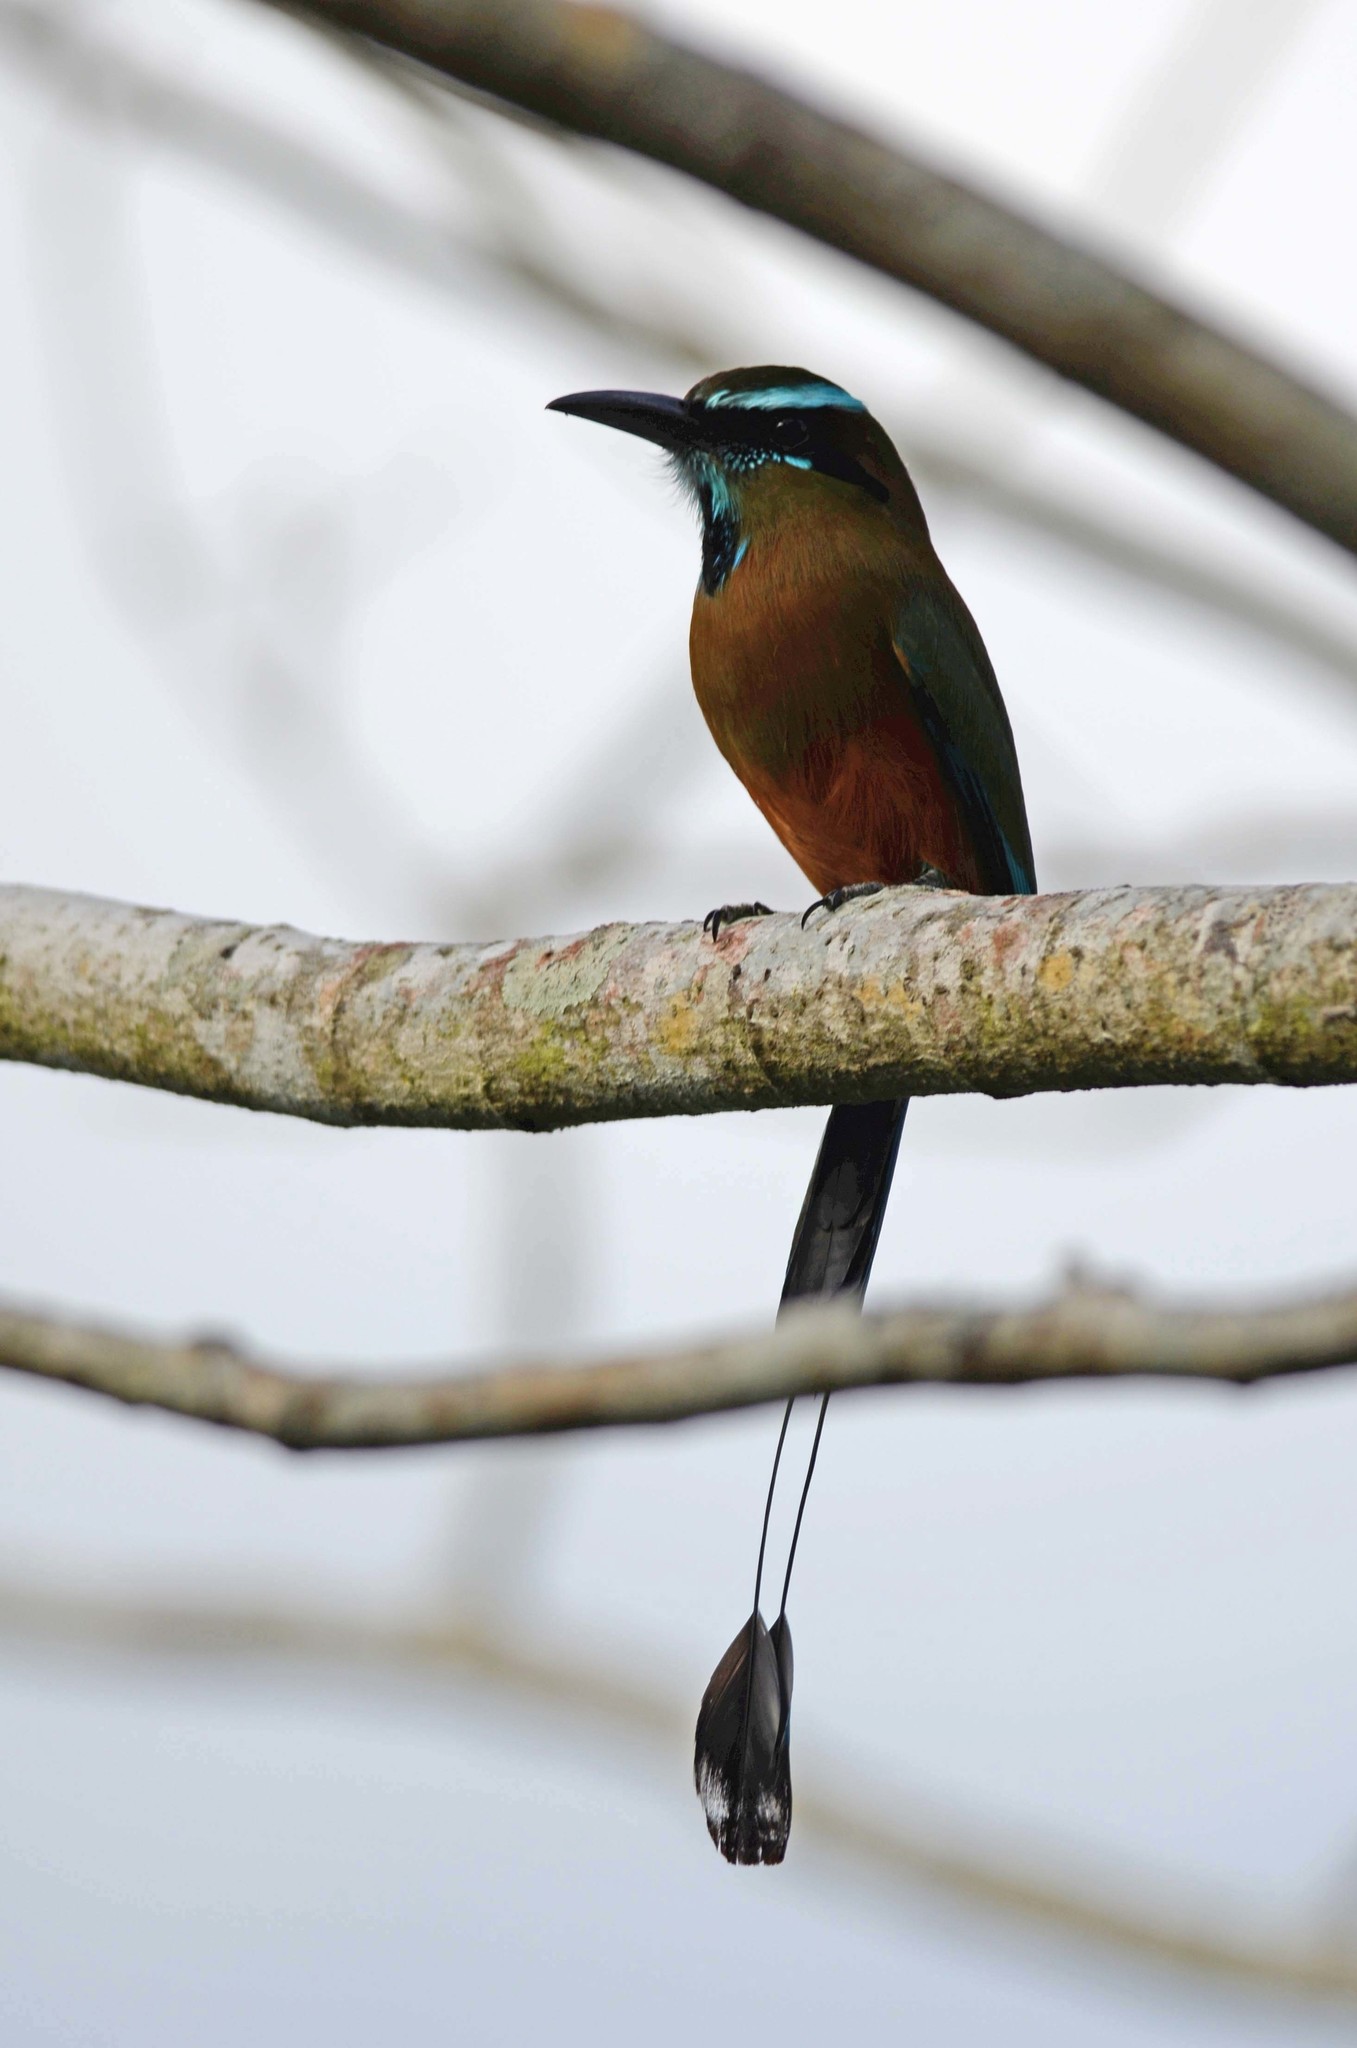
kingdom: Animalia
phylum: Chordata
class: Aves
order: Coraciiformes
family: Momotidae
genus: Eumomota
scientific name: Eumomota superciliosa
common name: Turquoise-browed motmot
